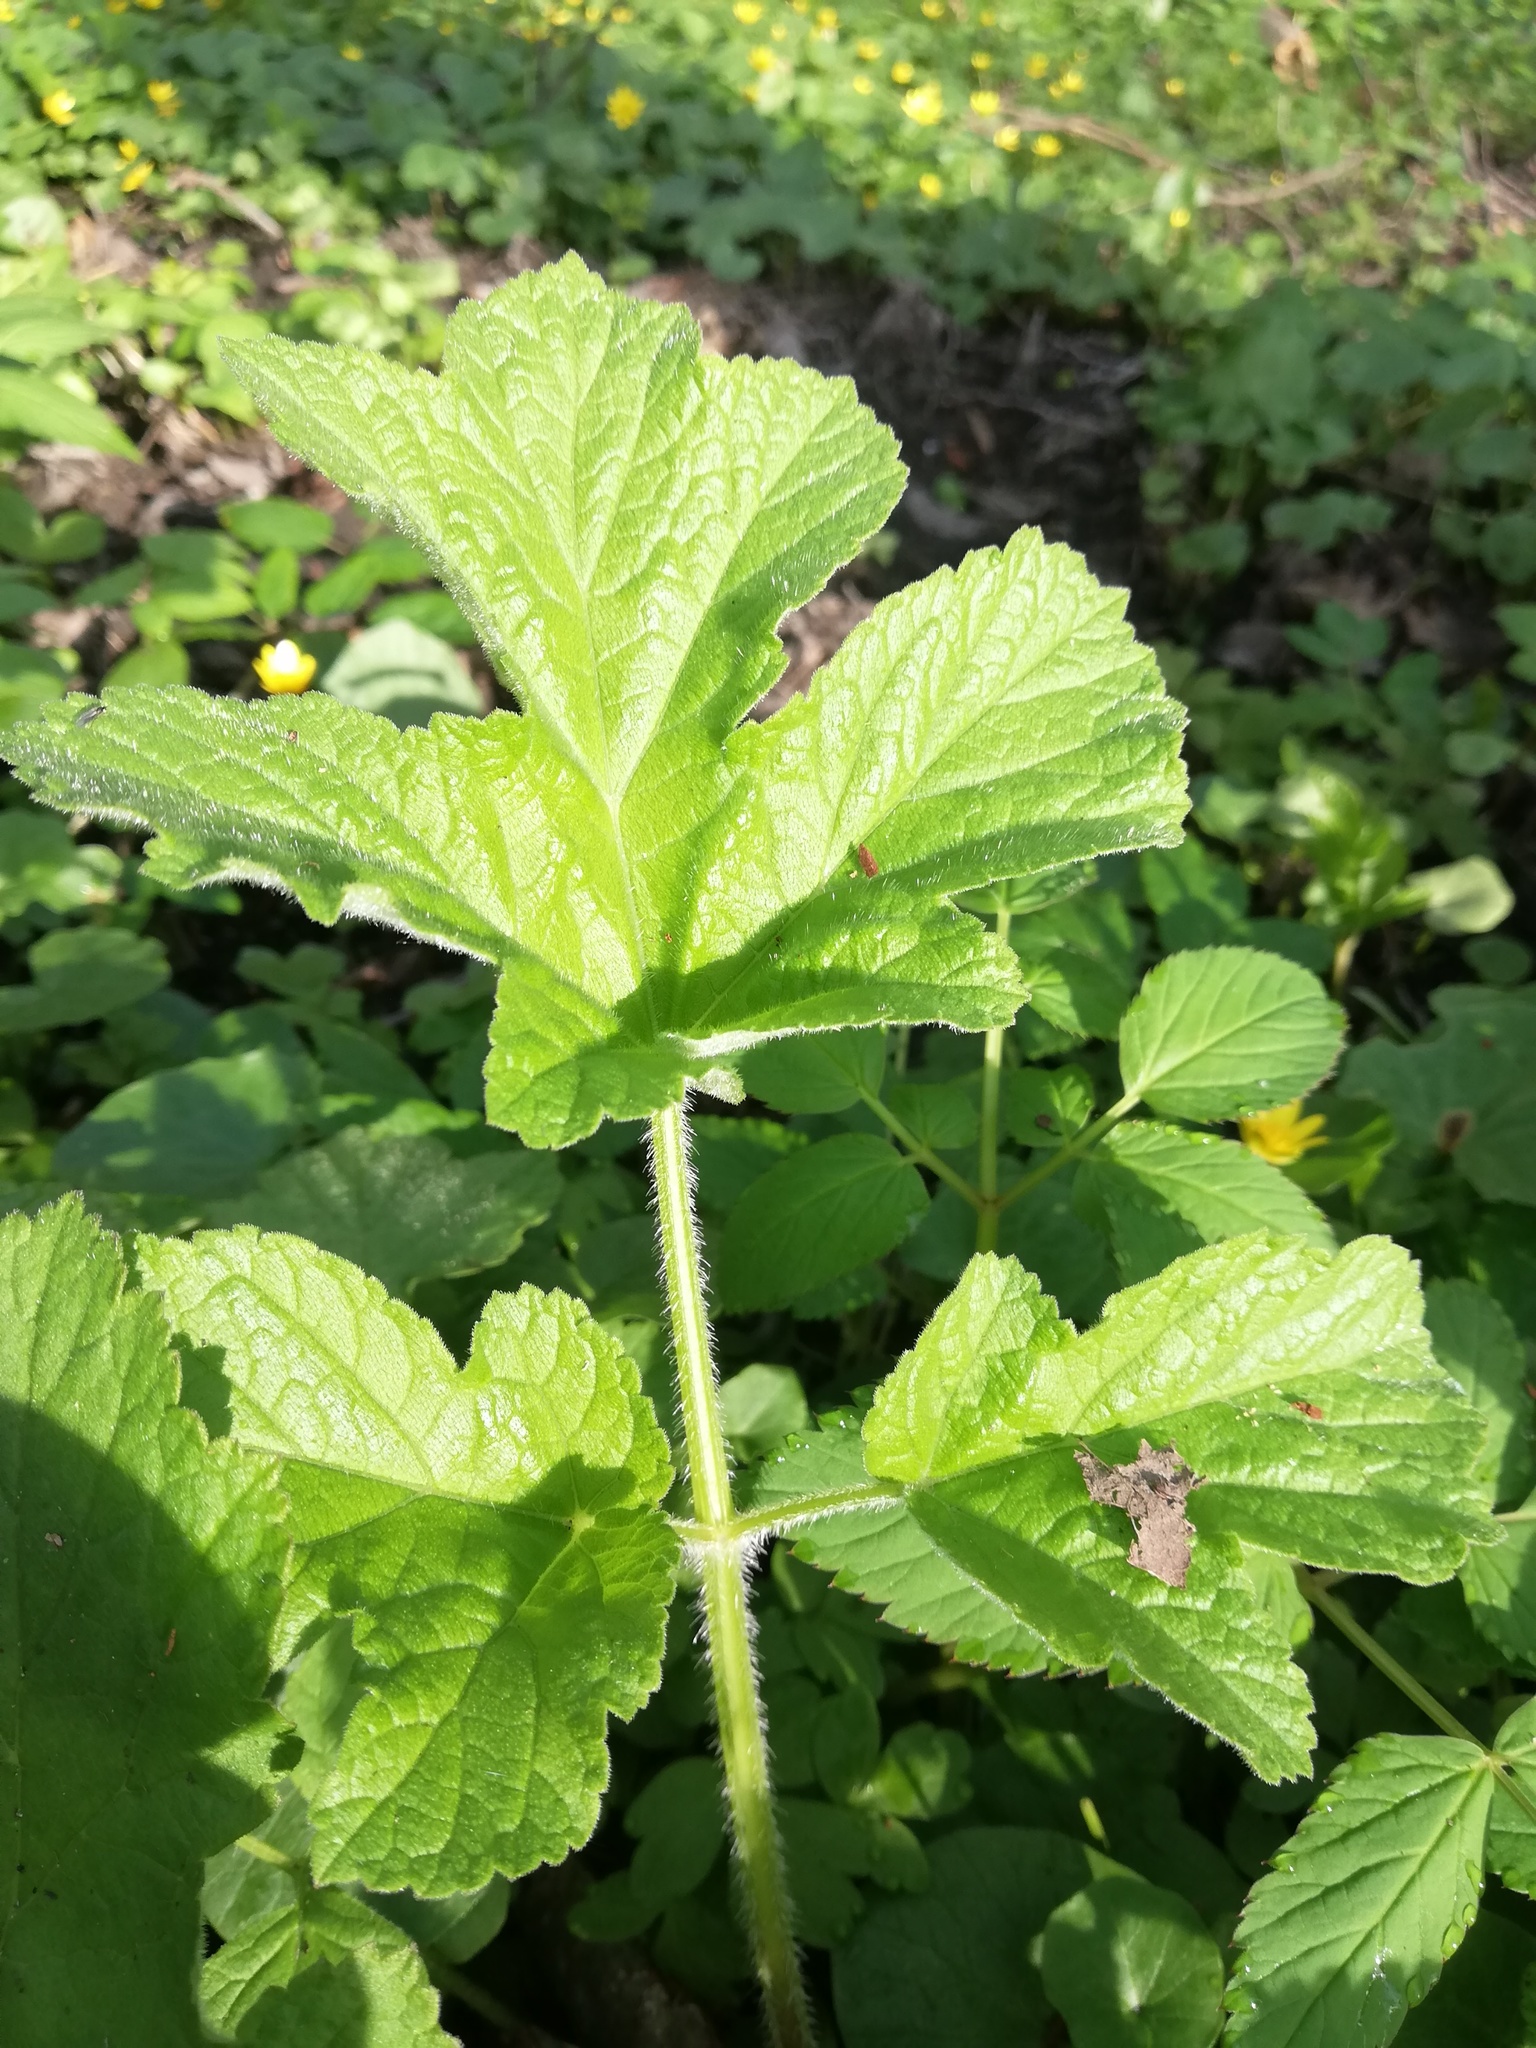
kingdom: Plantae
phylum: Tracheophyta
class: Magnoliopsida
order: Apiales
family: Apiaceae
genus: Heracleum
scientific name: Heracleum sphondylium
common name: Hogweed
